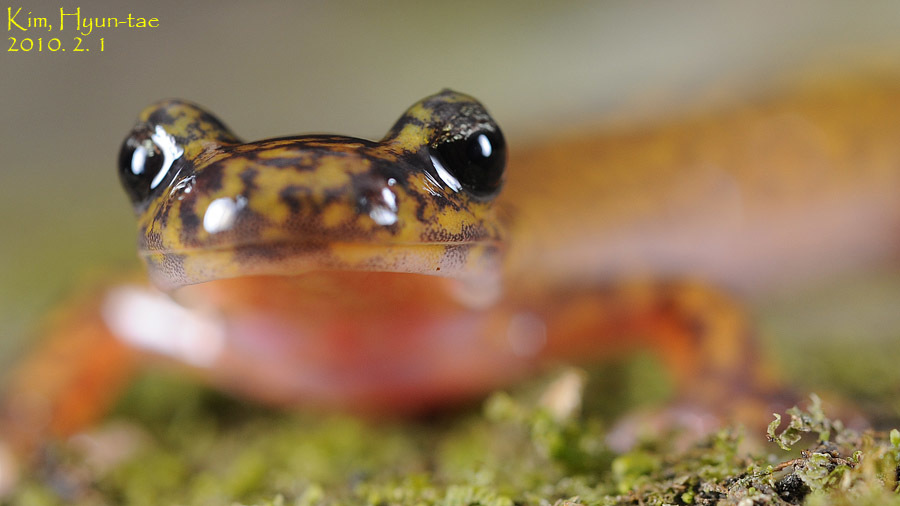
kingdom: Animalia
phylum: Chordata
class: Amphibia
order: Caudata
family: Hynobiidae
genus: Onychodactylus
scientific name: Onychodactylus koreanus
